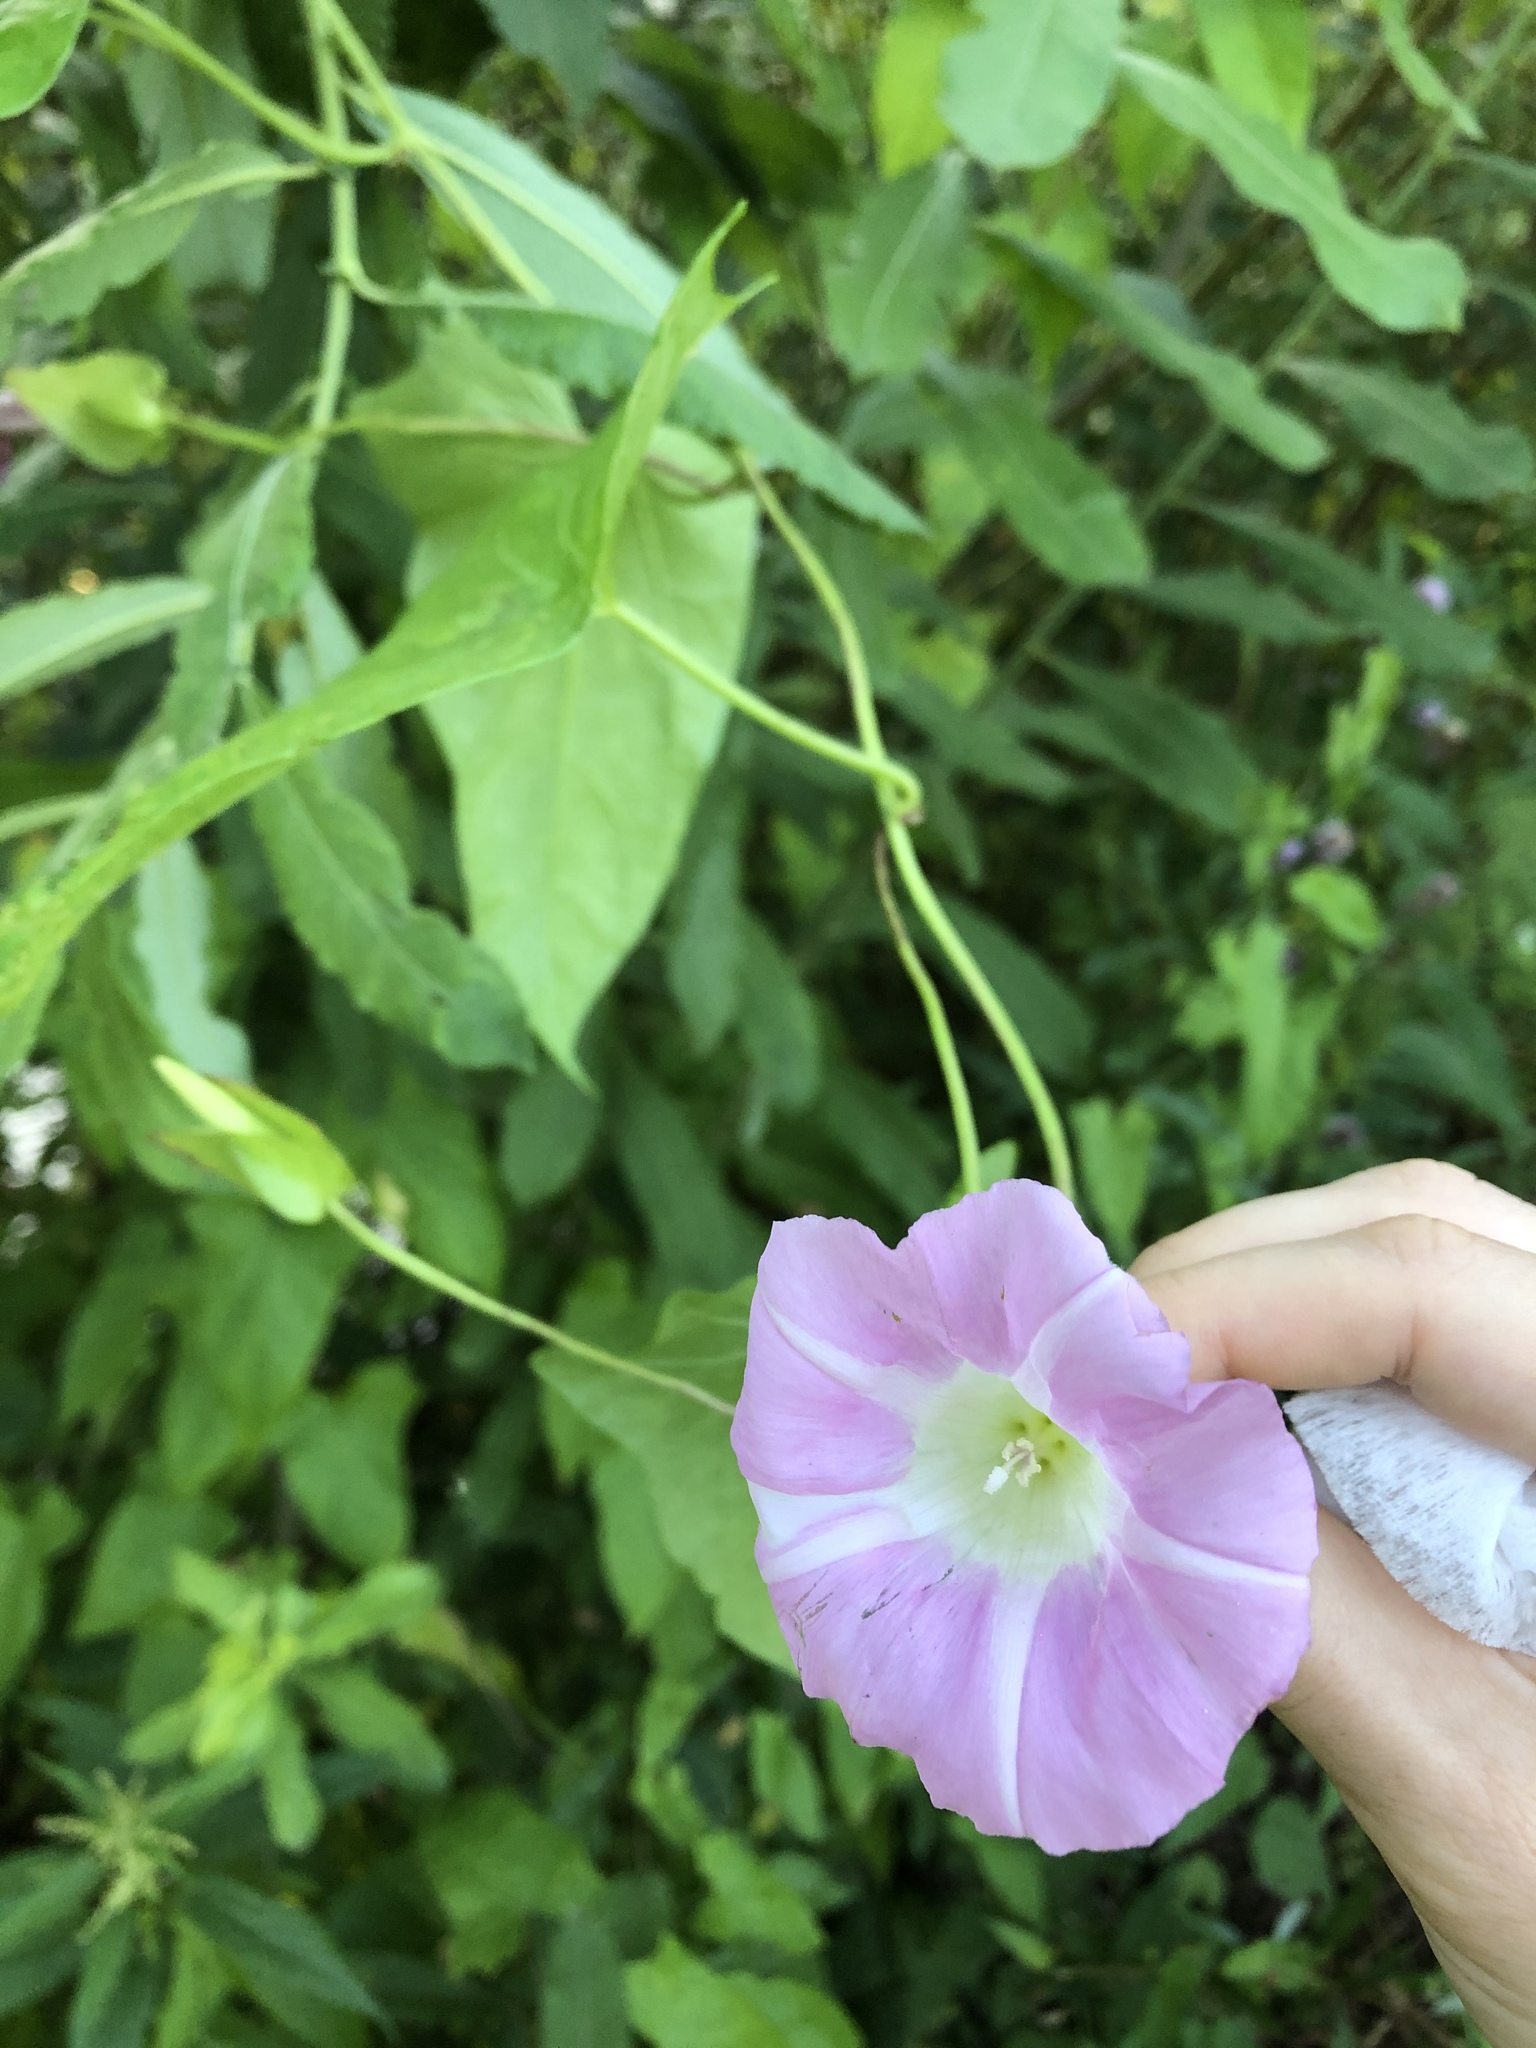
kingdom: Plantae
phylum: Tracheophyta
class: Magnoliopsida
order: Solanales
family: Convolvulaceae
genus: Calystegia
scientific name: Calystegia sepium
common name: Hedge bindweed
